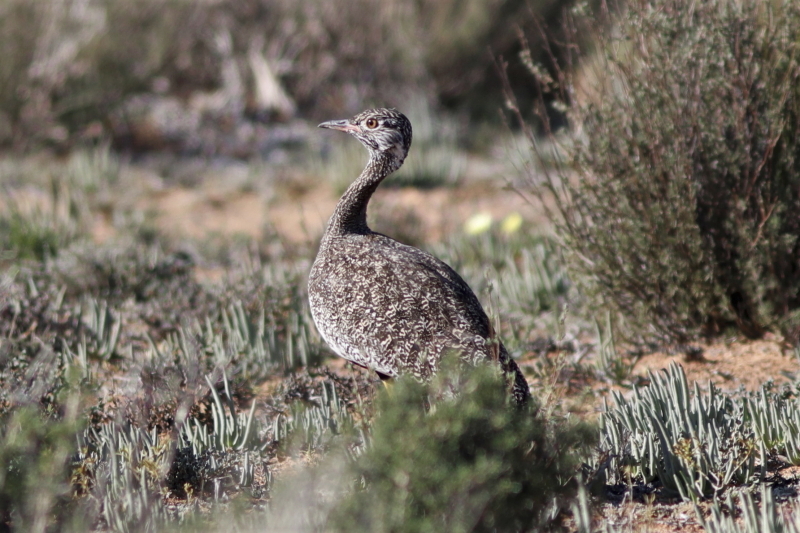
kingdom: Animalia
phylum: Chordata
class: Aves
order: Otidiformes
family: Otididae
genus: Afrotis
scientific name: Afrotis afra
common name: Southern black korhaan
